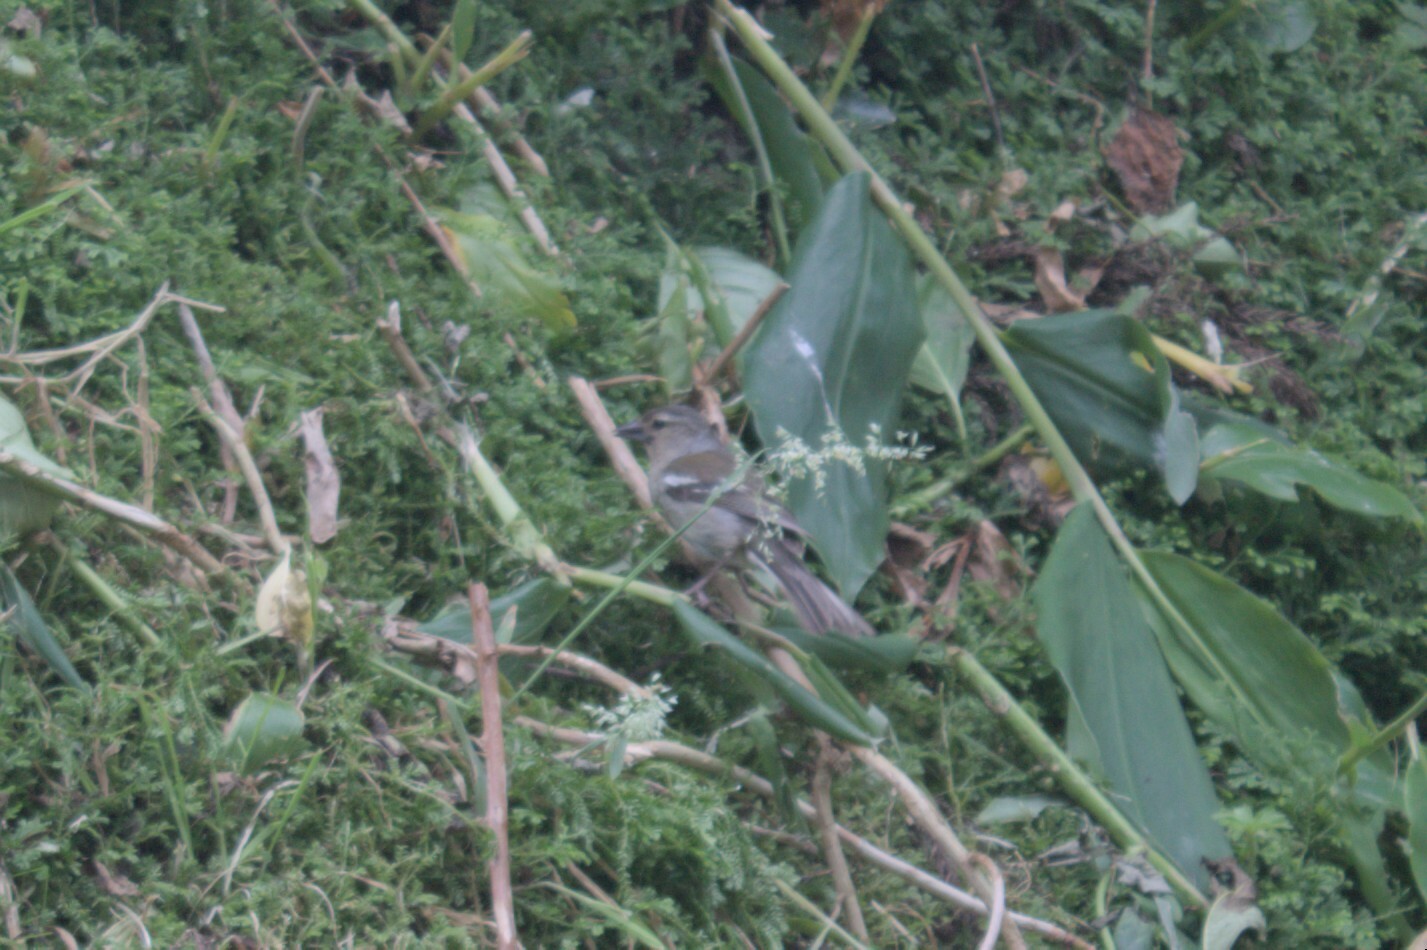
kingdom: Animalia
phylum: Chordata
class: Aves
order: Passeriformes
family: Fringillidae
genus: Fringilla
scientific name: Fringilla moreletti
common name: Azores chaffinch
